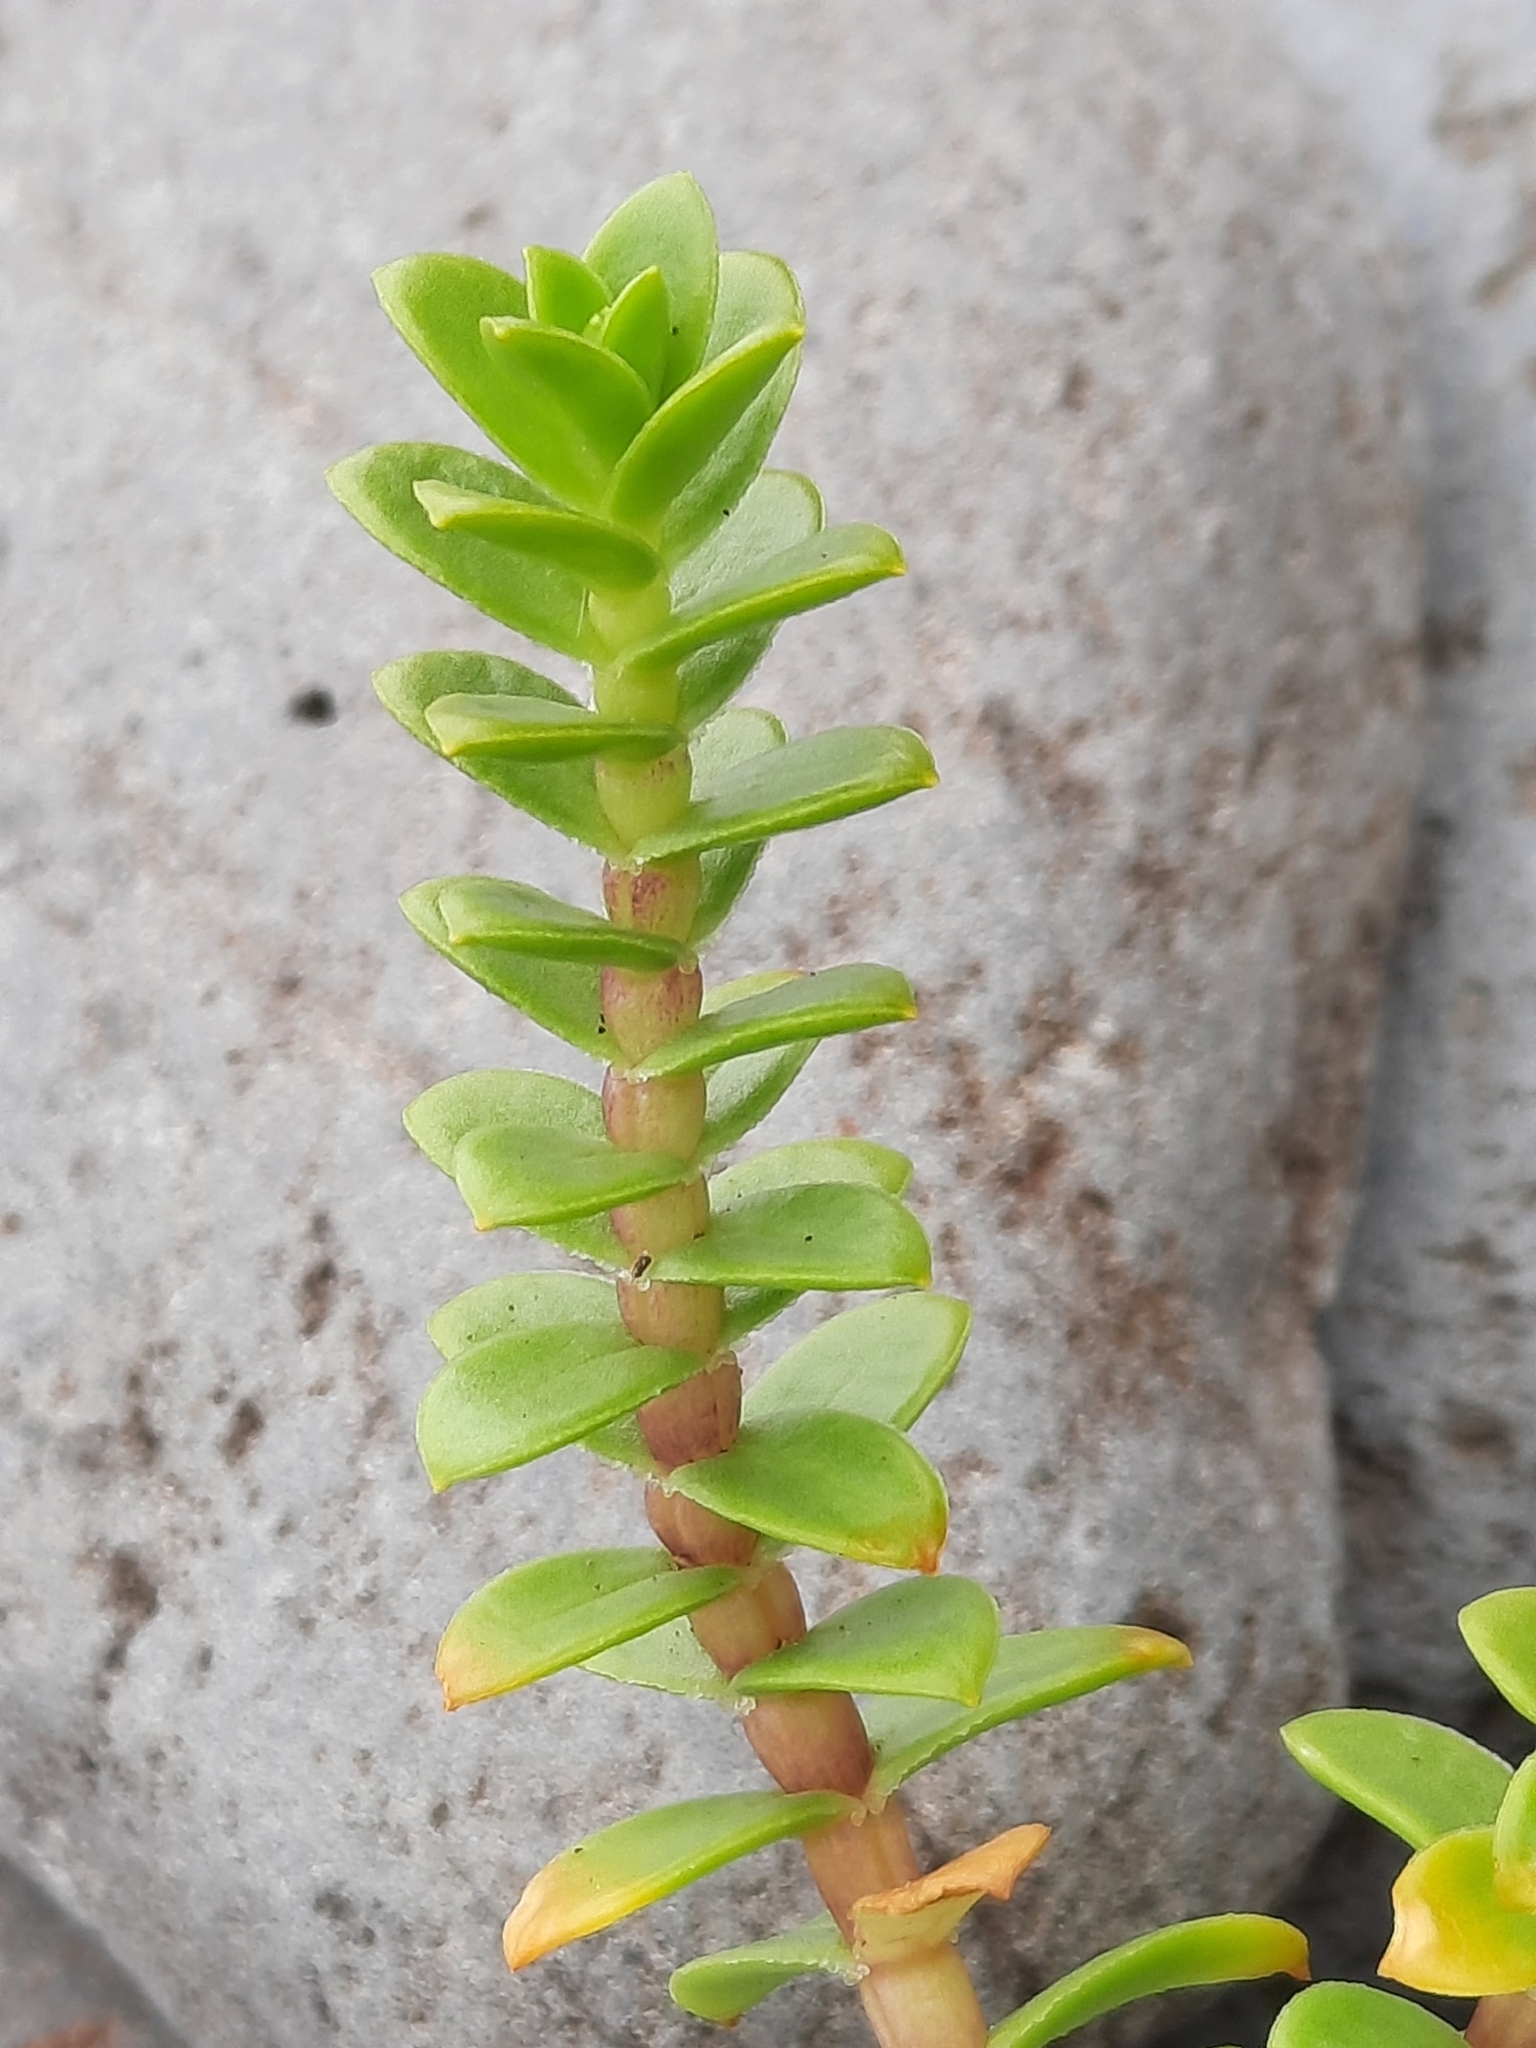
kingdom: Plantae
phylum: Tracheophyta
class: Magnoliopsida
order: Caryophyllales
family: Caryophyllaceae
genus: Honckenya
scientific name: Honckenya peploides
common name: Sea sandwort
